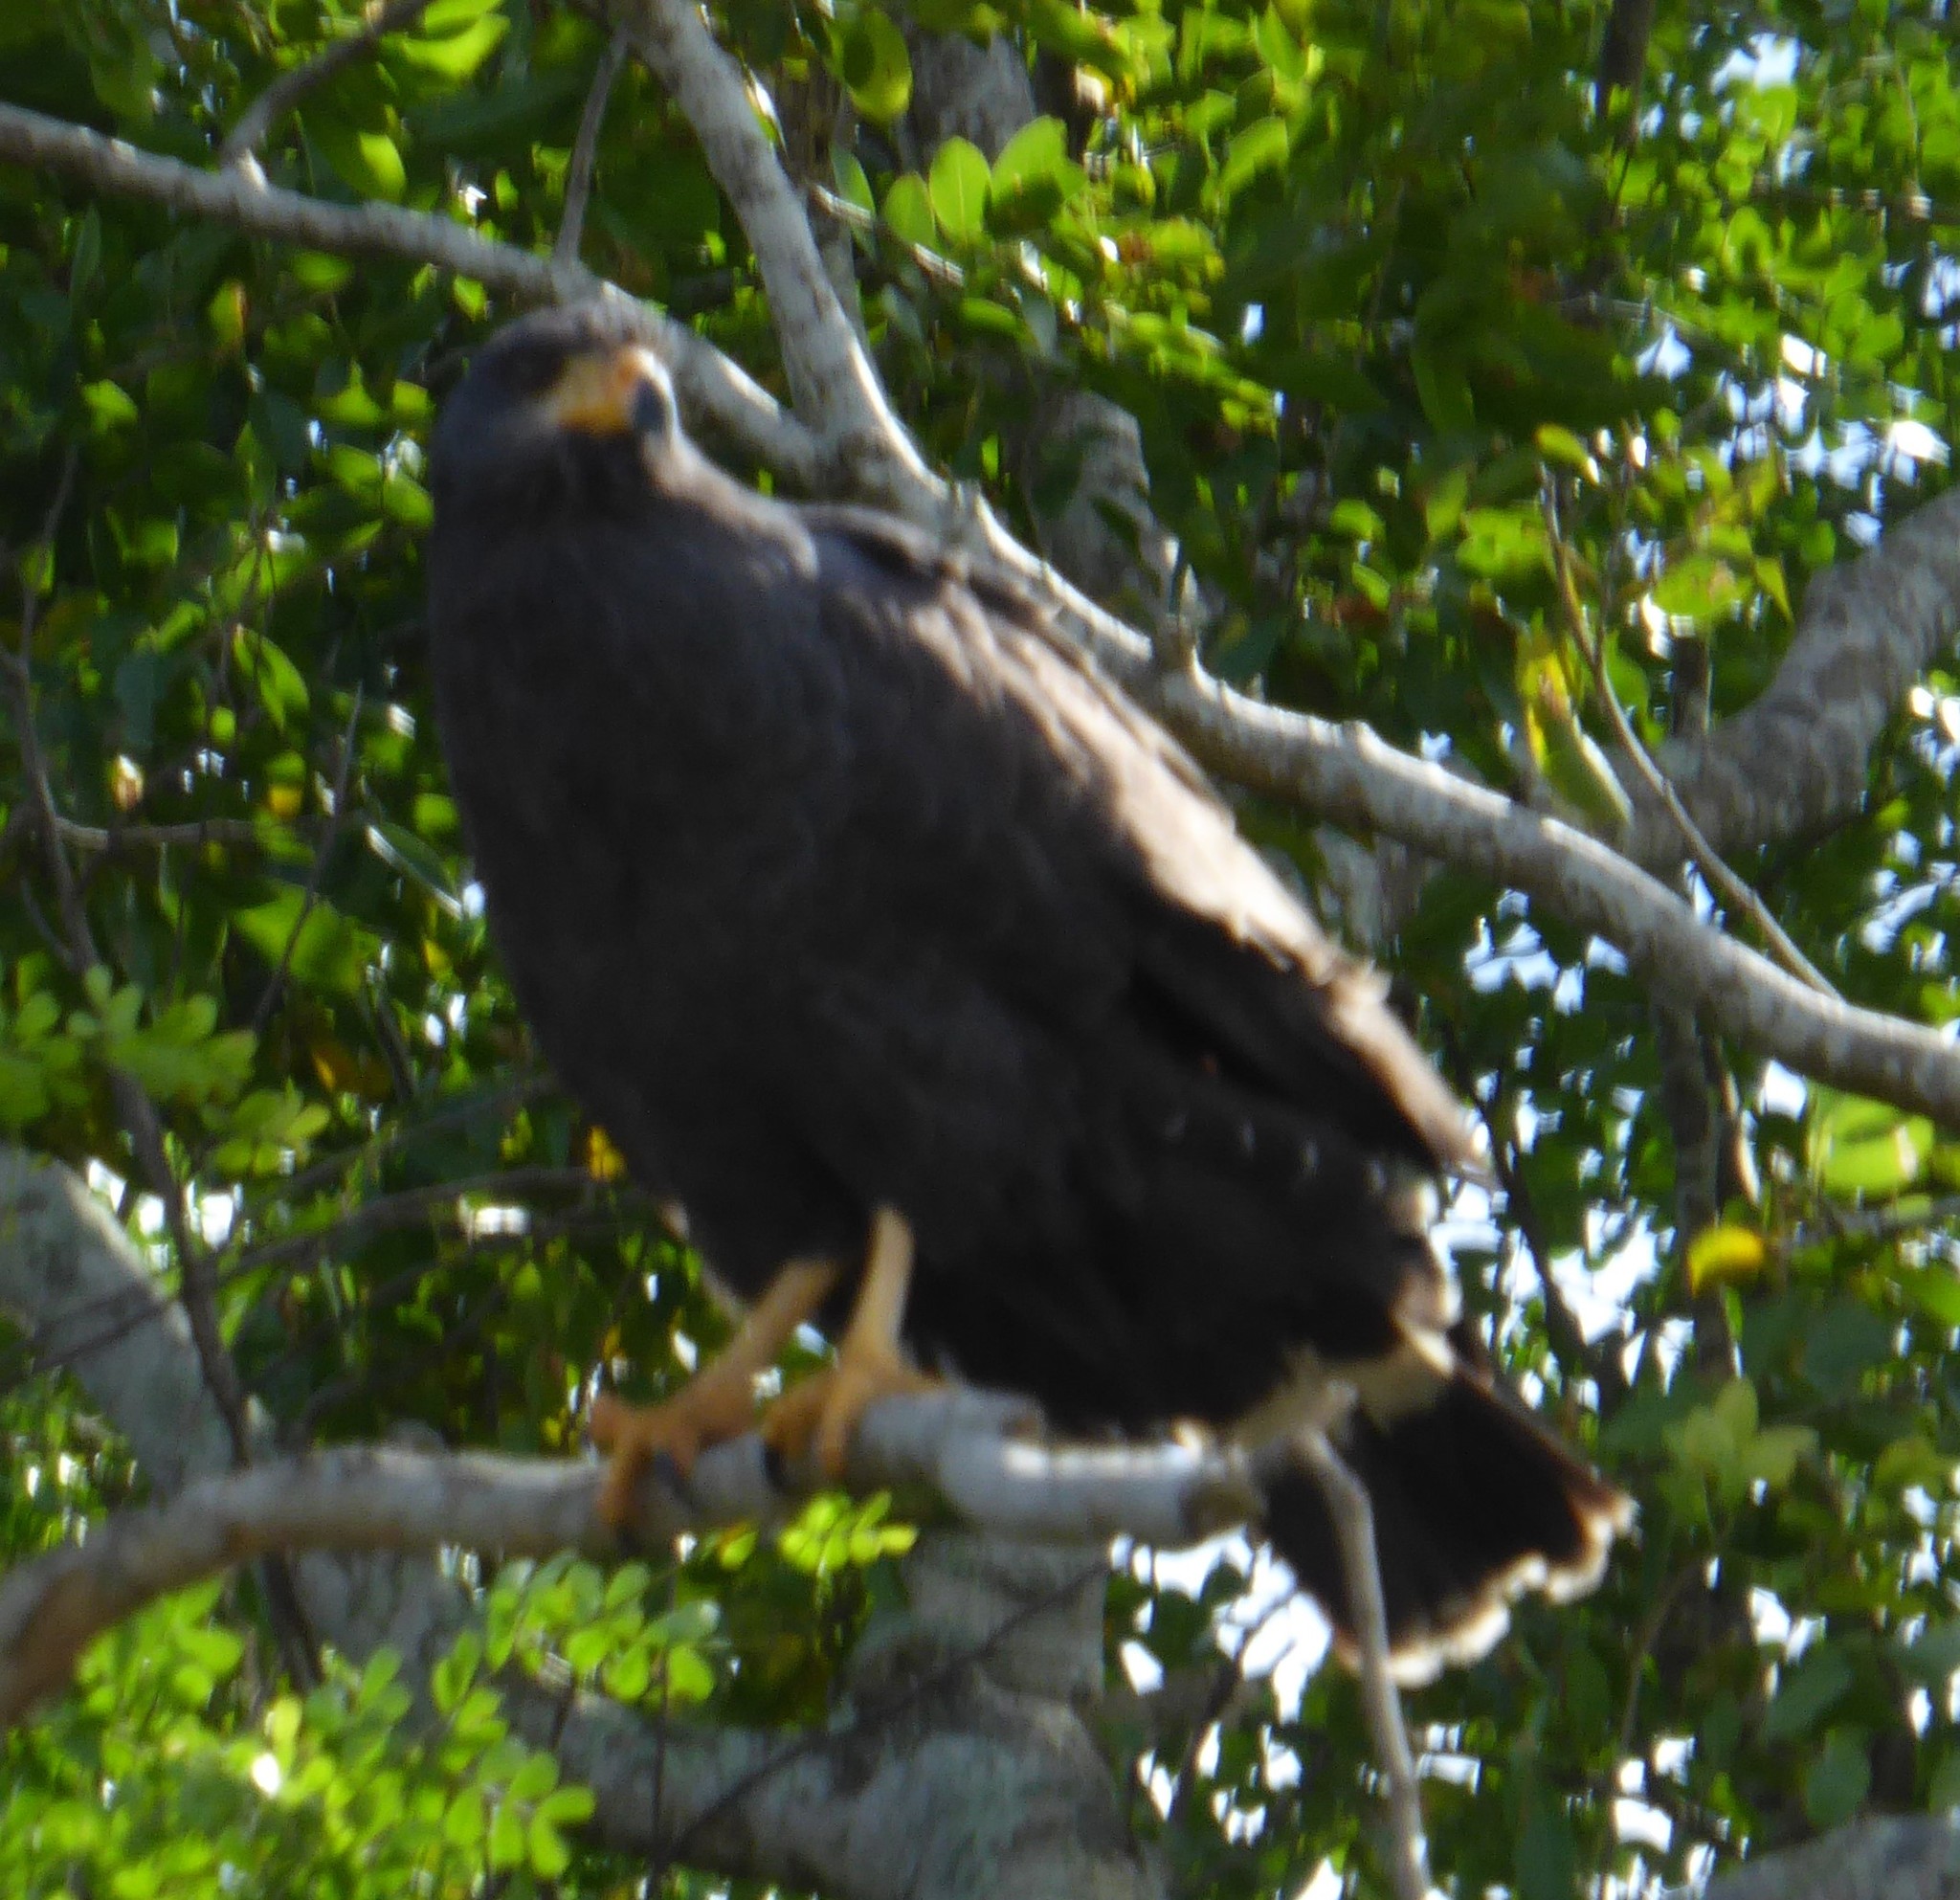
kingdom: Animalia
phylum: Chordata
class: Aves
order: Accipitriformes
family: Accipitridae
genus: Buteogallus
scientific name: Buteogallus anthracinus
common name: Common black hawk
